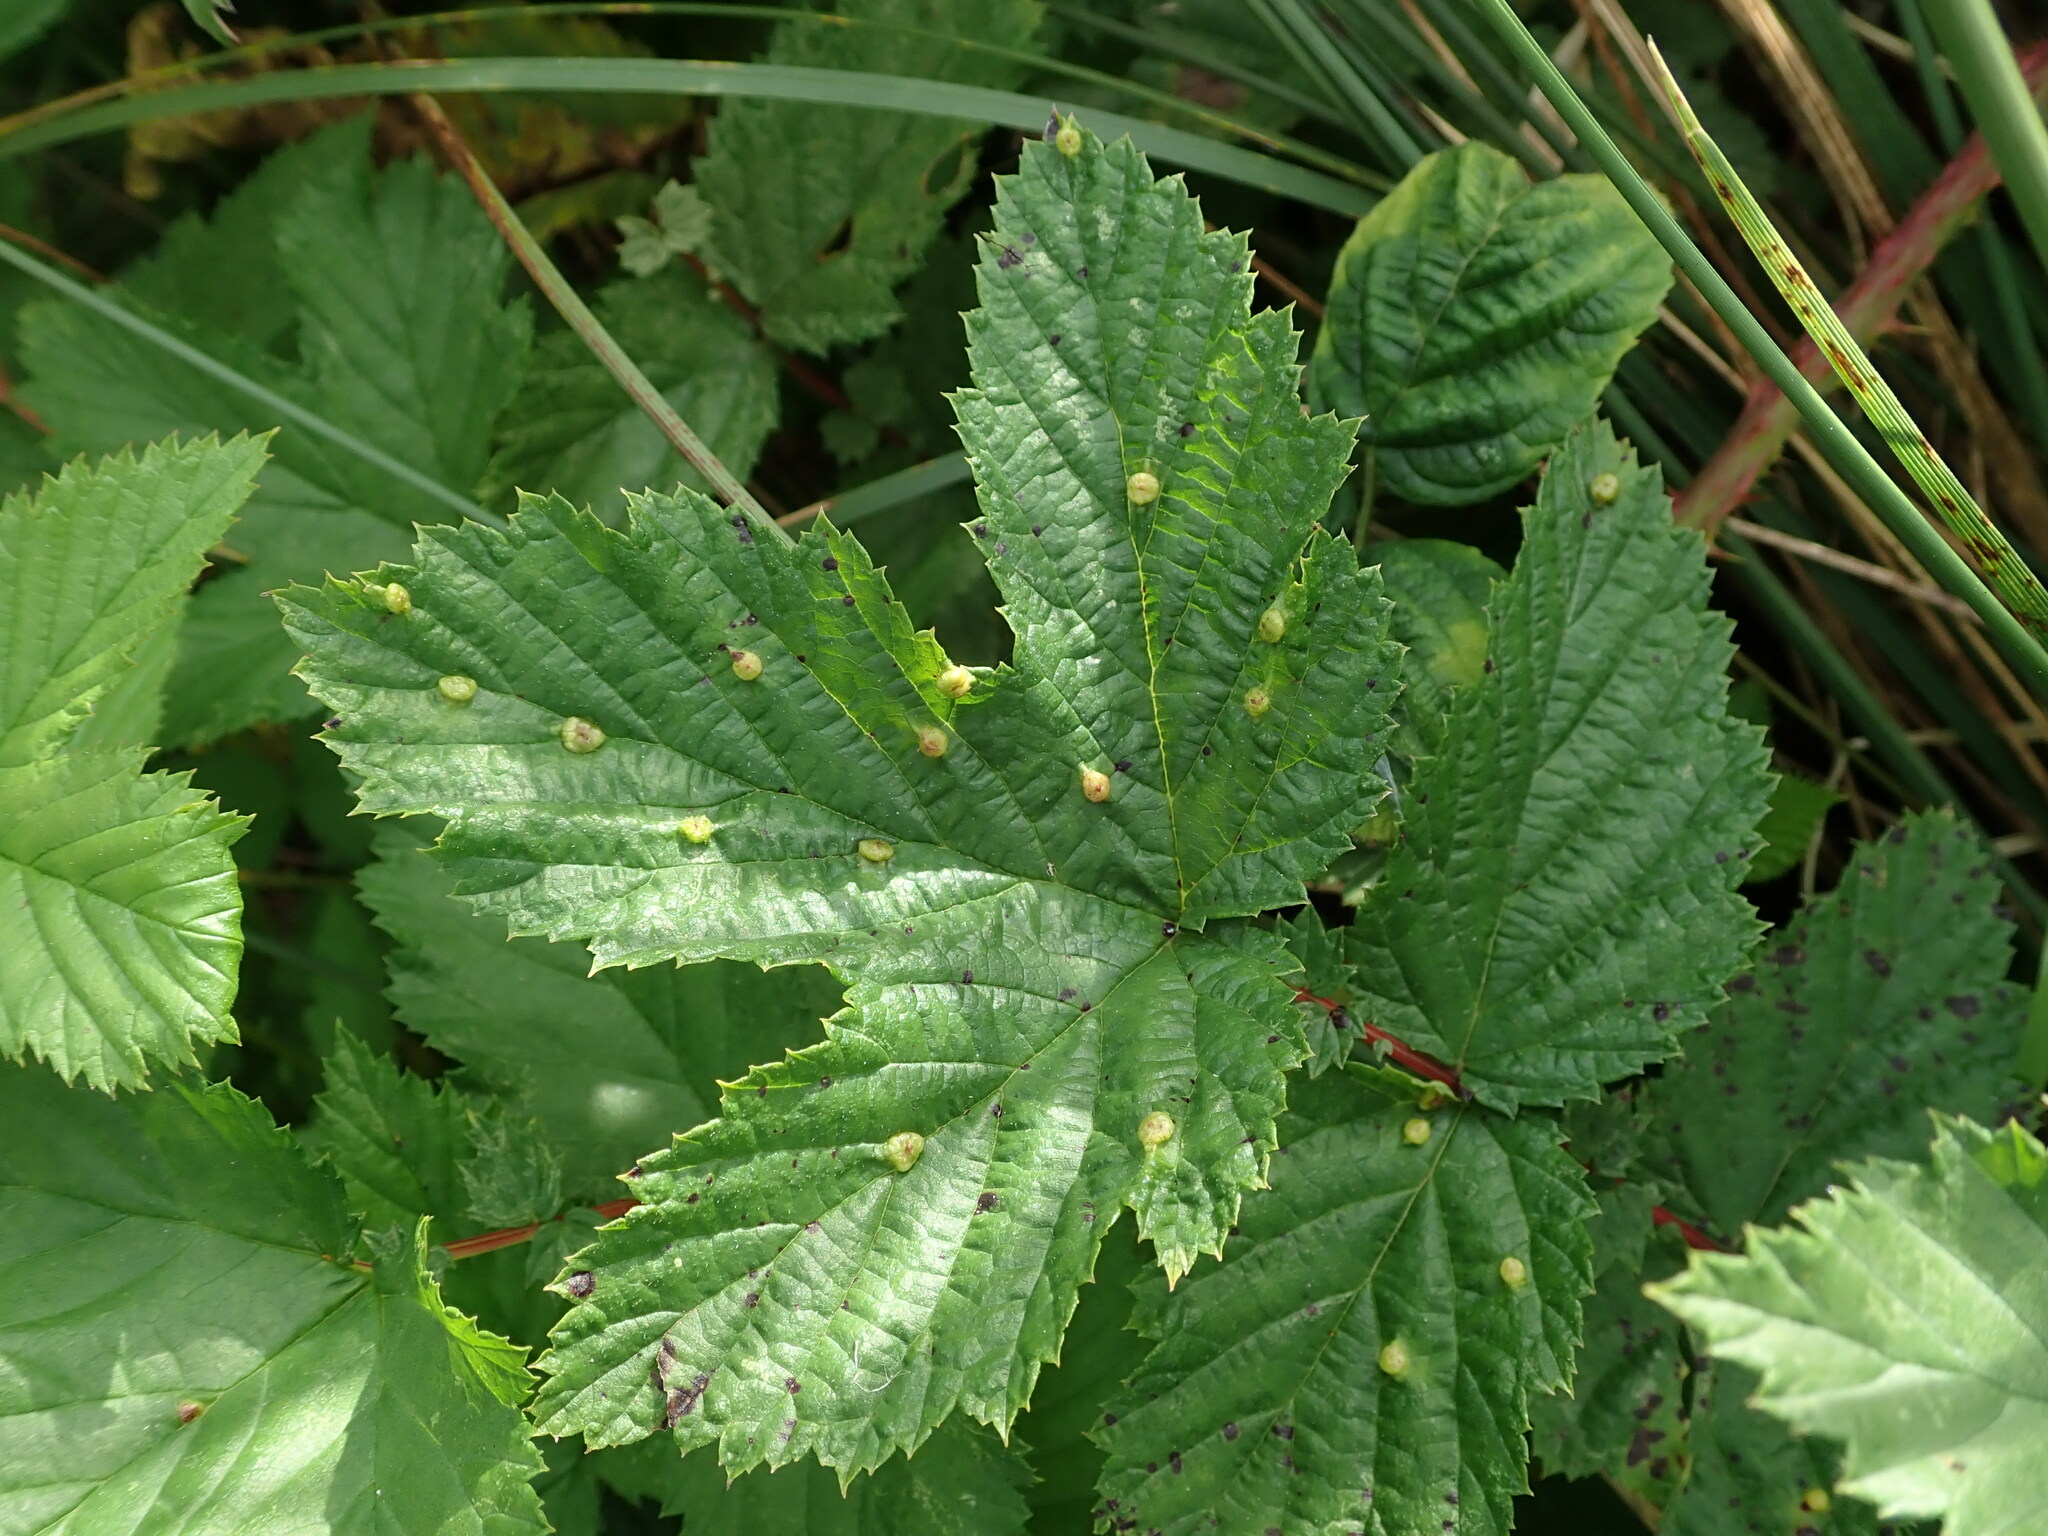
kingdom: Animalia
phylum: Arthropoda
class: Insecta
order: Diptera
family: Cecidomyiidae
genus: Dasineura
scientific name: Dasineura ulmaria
